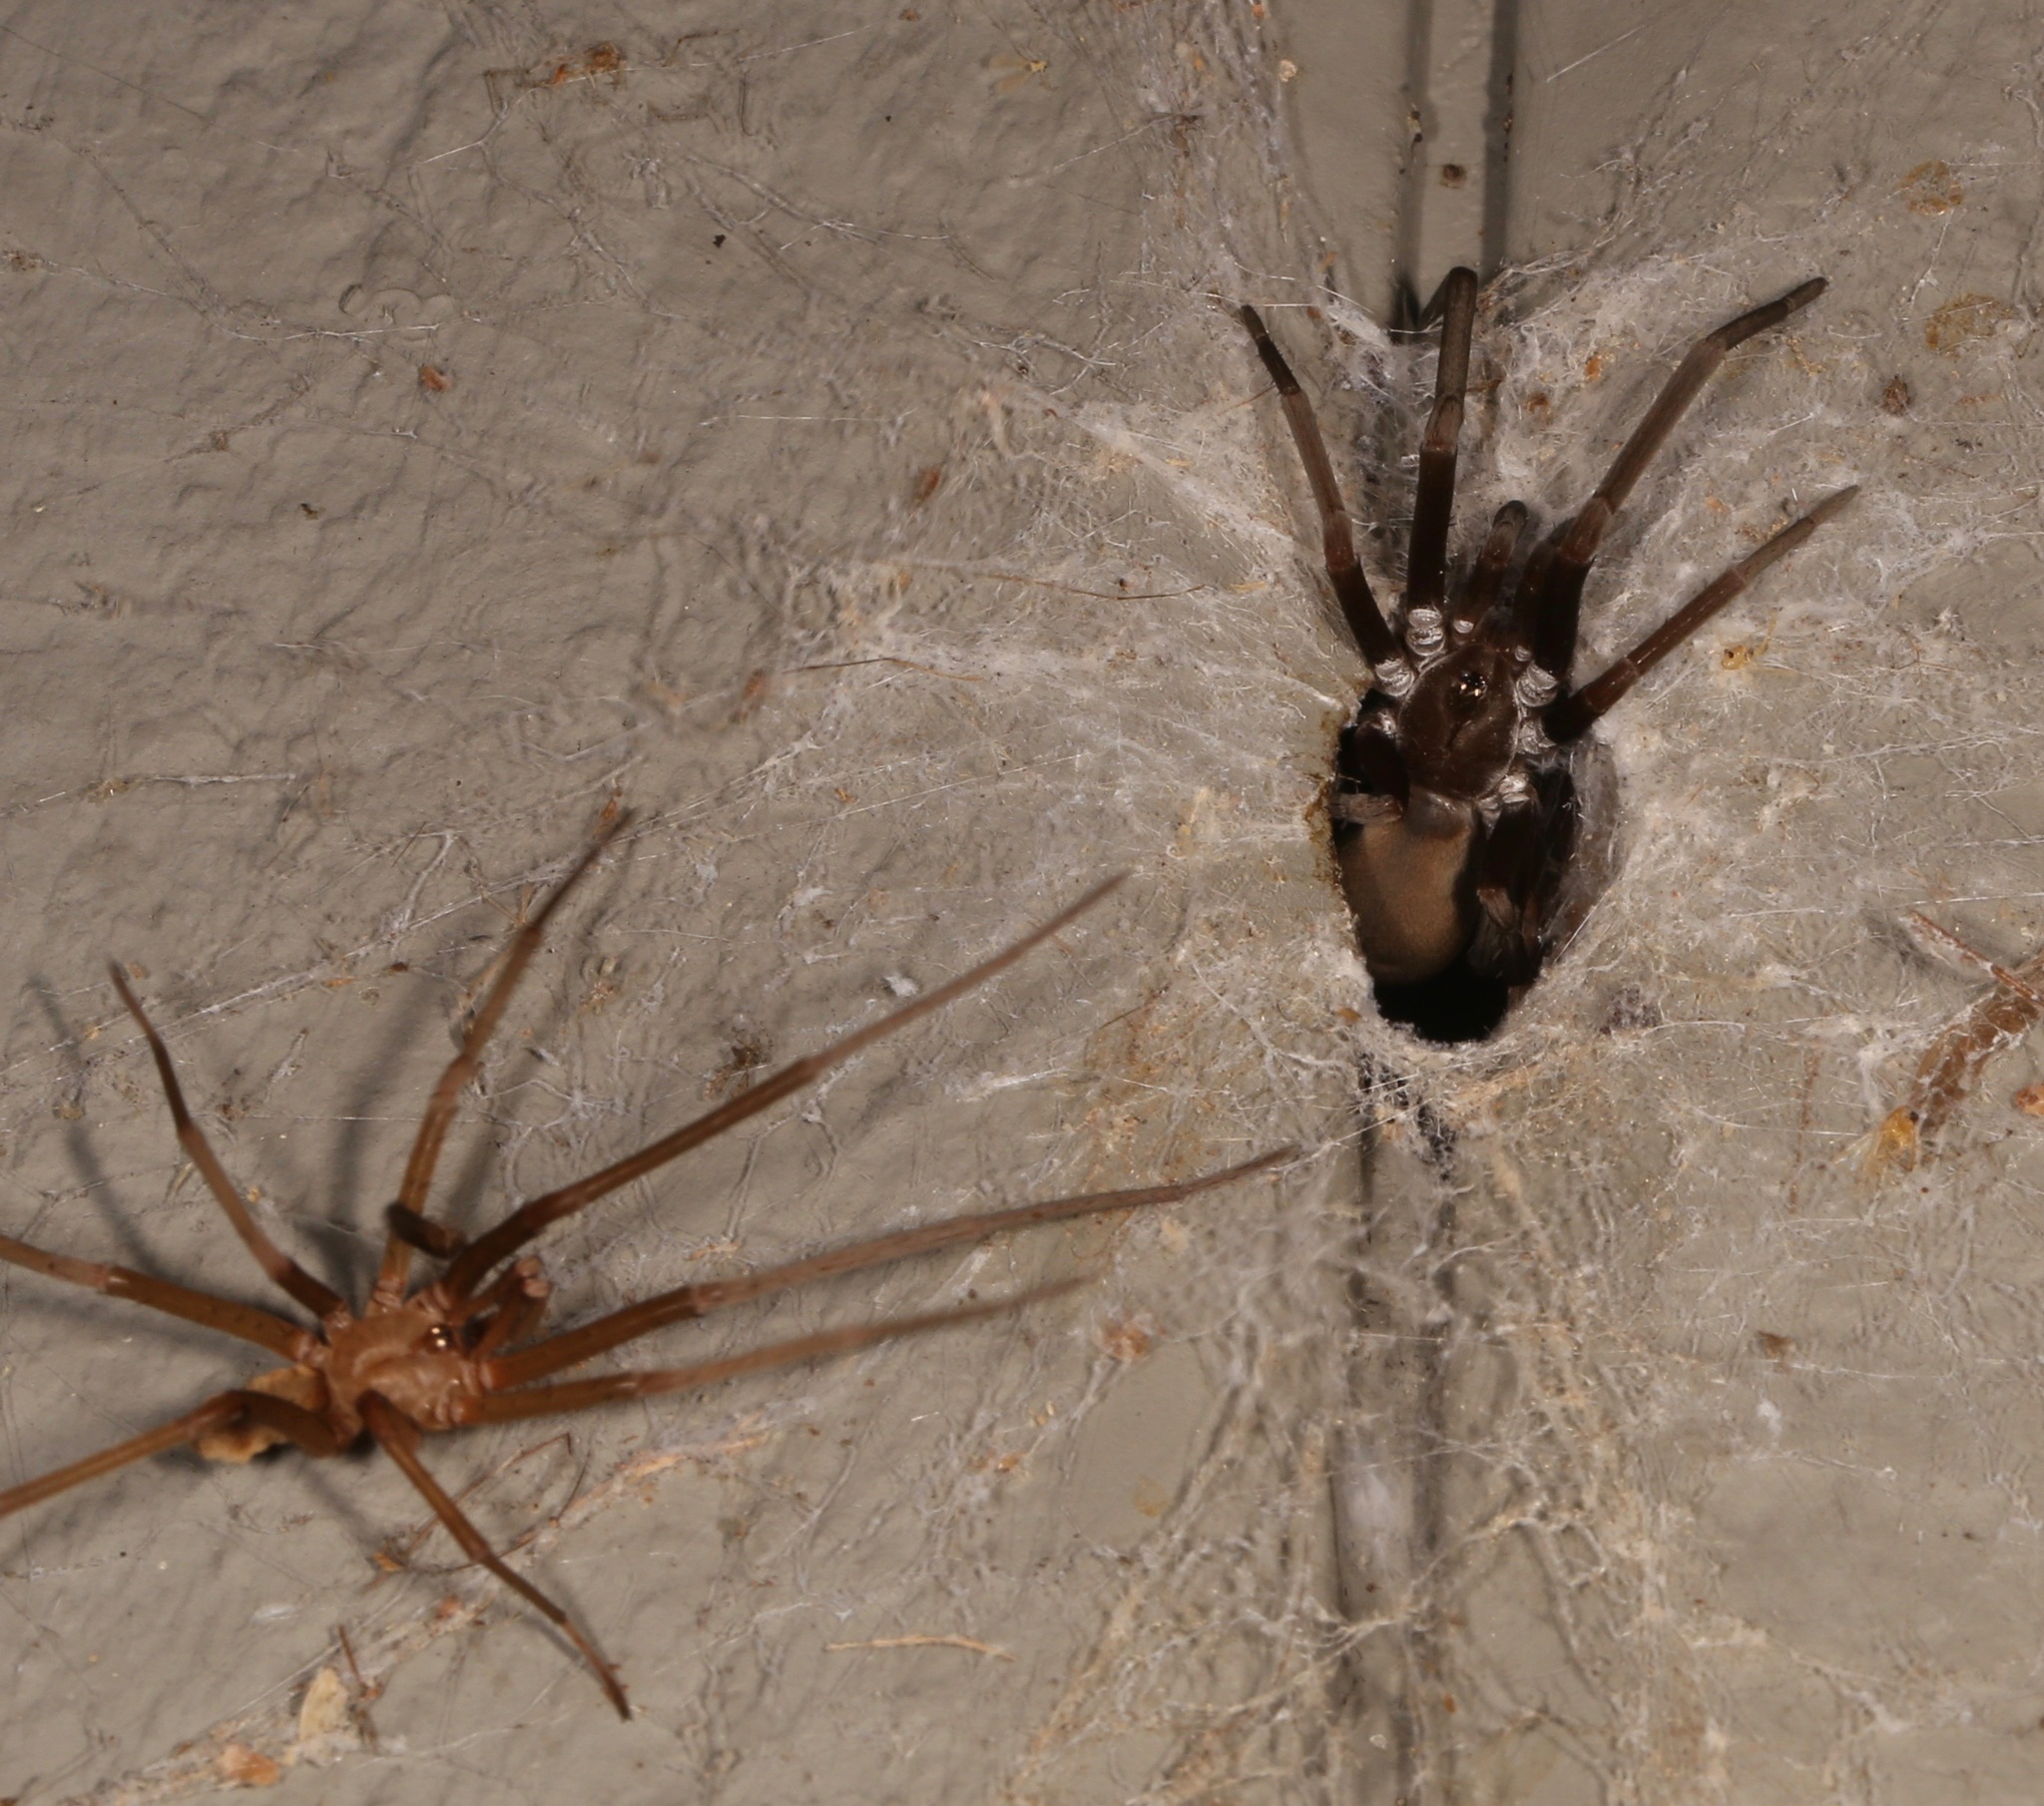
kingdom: Animalia
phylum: Arthropoda
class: Arachnida
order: Araneae
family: Filistatidae
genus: Kukulcania
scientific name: Kukulcania hibernalis
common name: Crevice weaver
